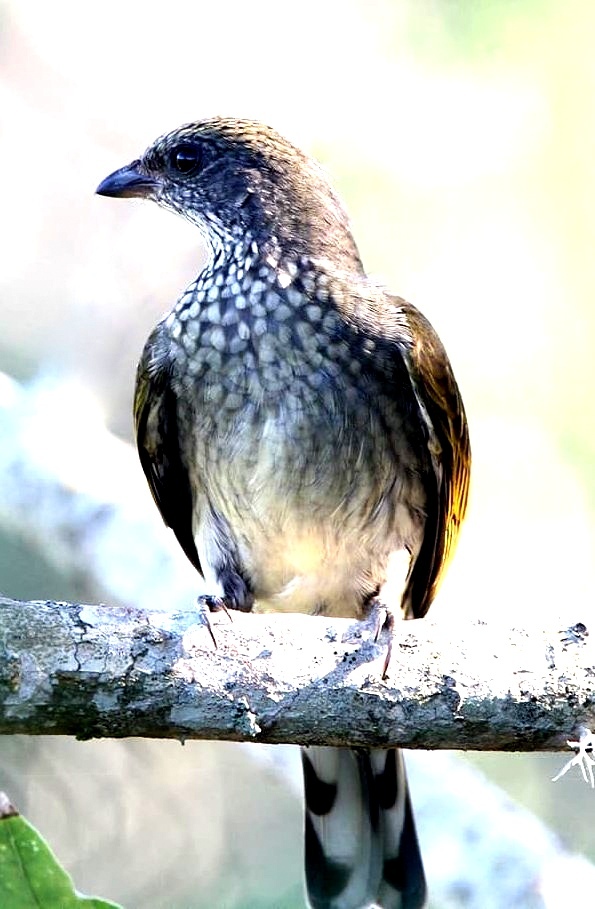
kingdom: Animalia
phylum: Chordata
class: Aves
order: Piciformes
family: Indicatoridae
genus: Indicator
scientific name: Indicator variegatus
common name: Scaly-throated honeyguide
